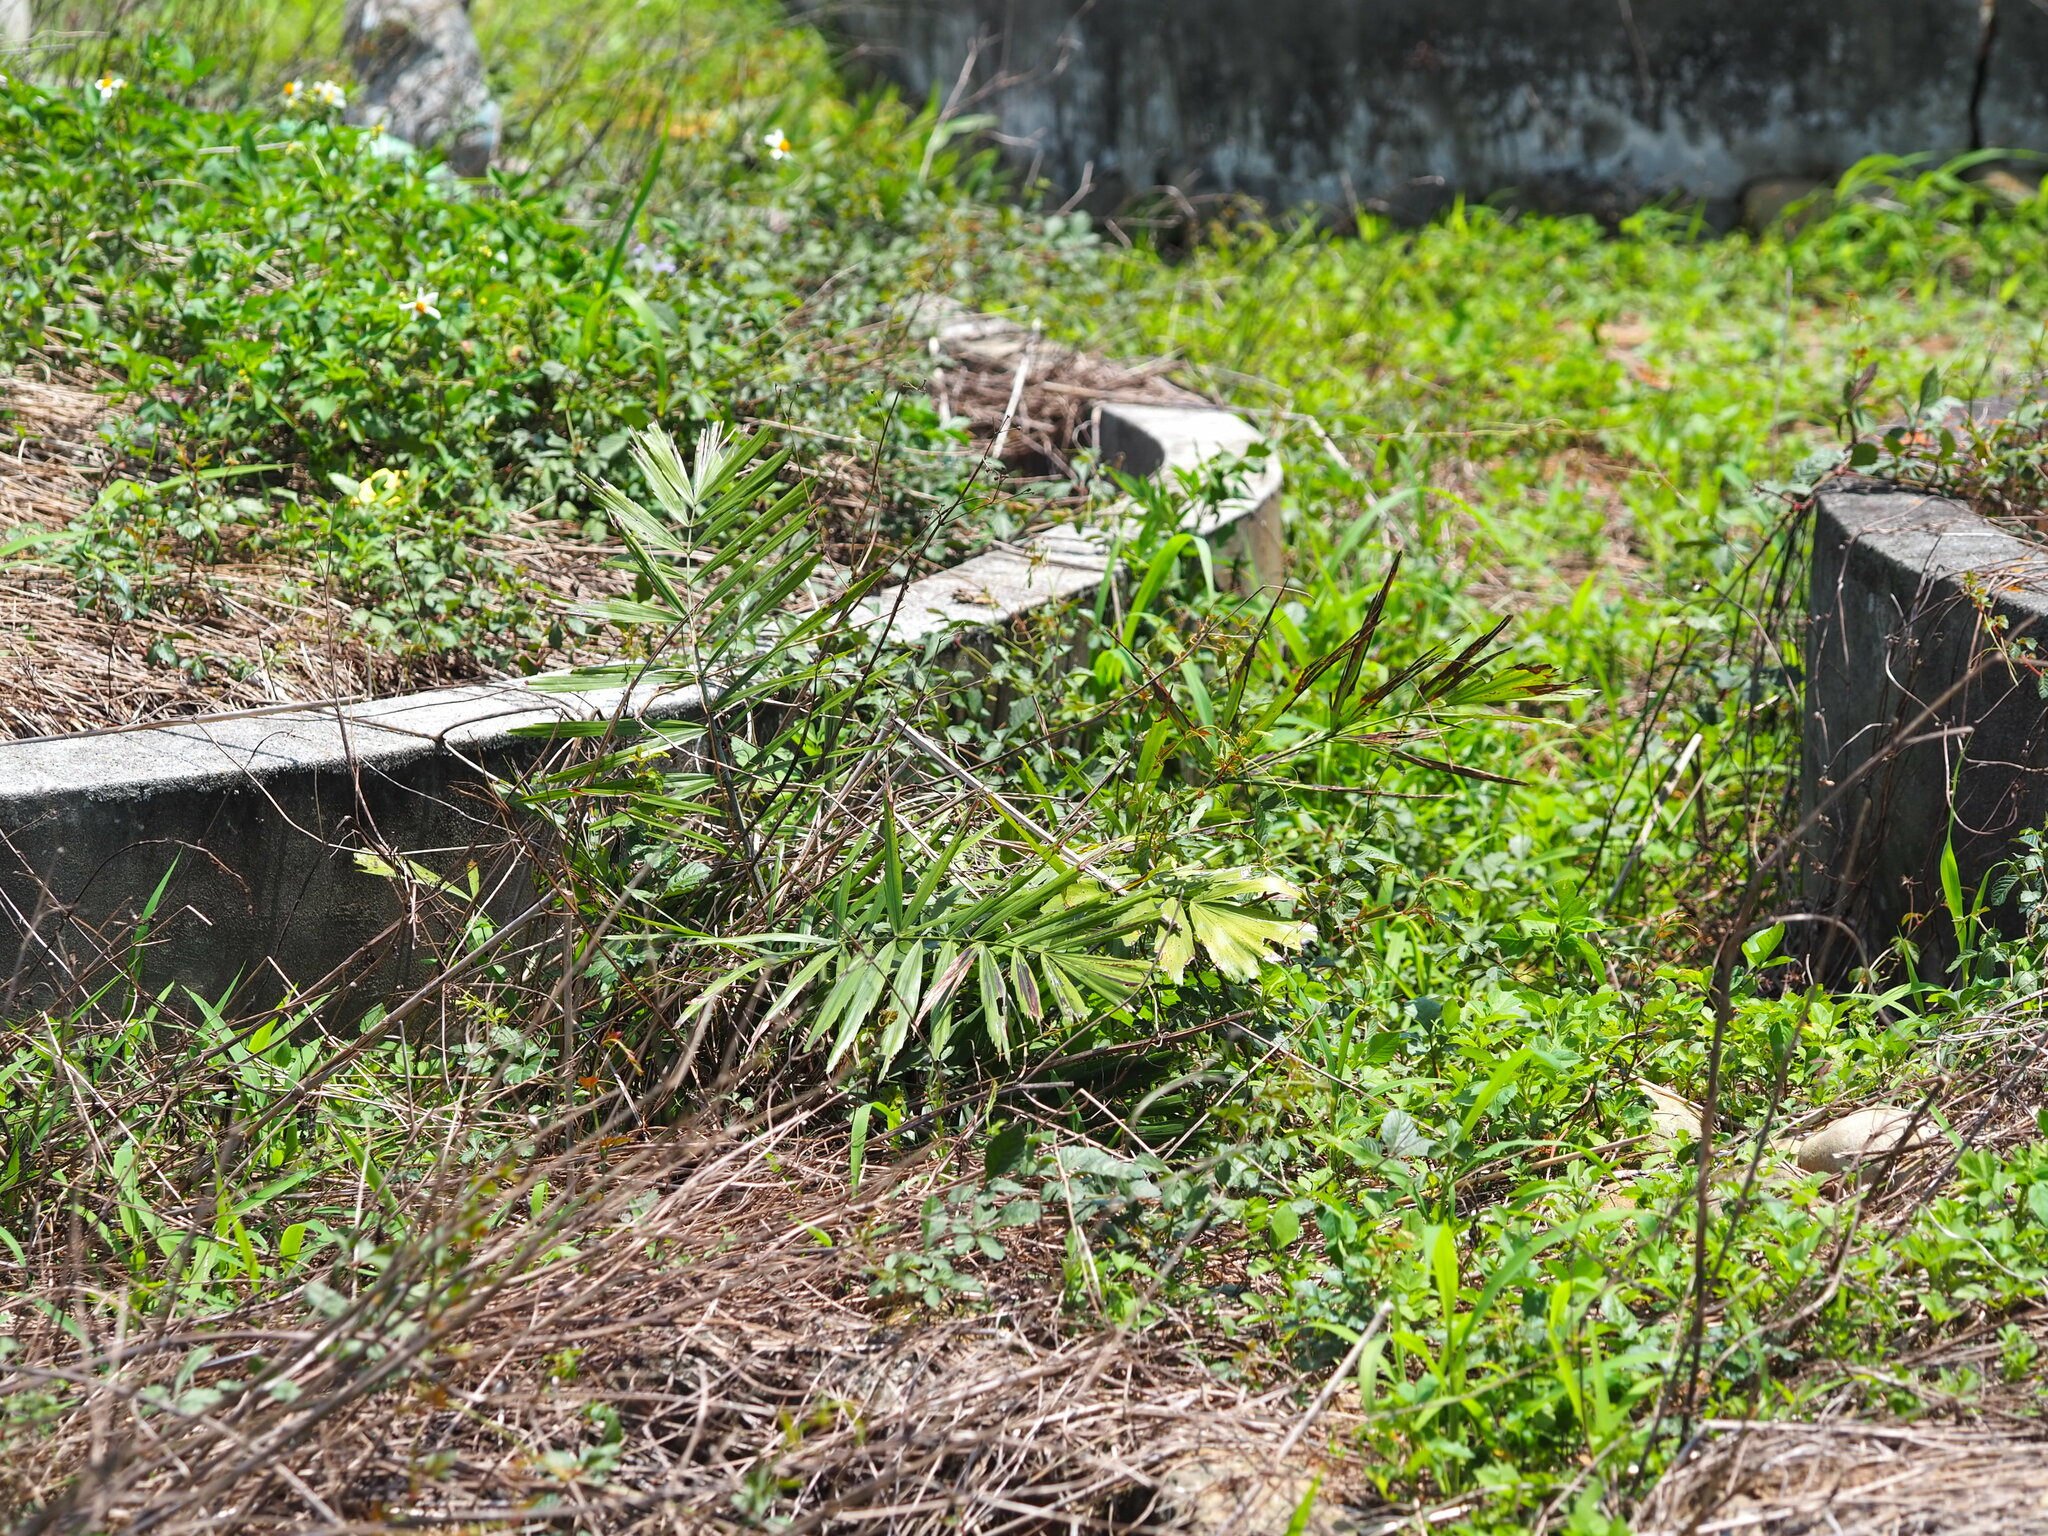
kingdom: Plantae
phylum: Tracheophyta
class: Liliopsida
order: Arecales
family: Arecaceae
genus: Phoenix
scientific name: Phoenix loureiroi
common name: Loureiro's palm
